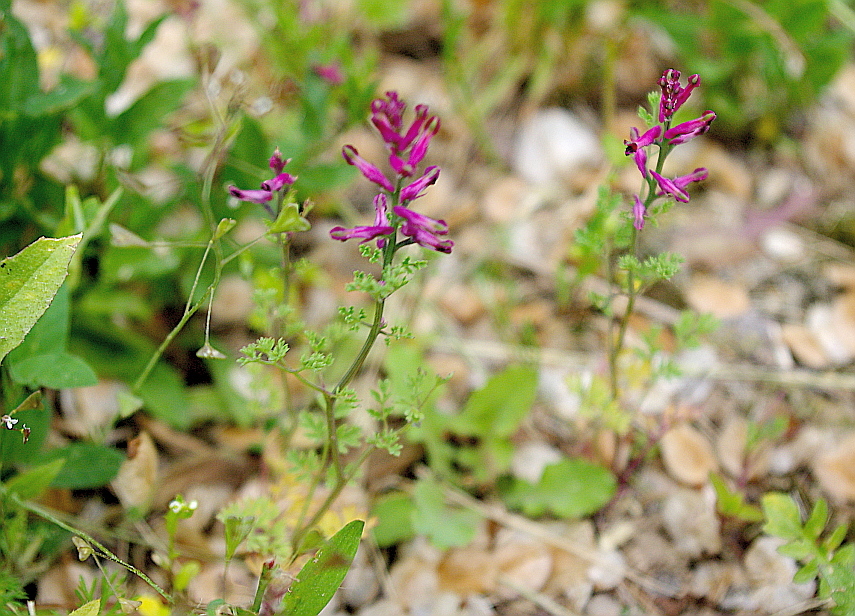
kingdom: Plantae
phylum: Tracheophyta
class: Magnoliopsida
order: Ranunculales
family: Papaveraceae
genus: Fumaria
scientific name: Fumaria officinalis
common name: Common fumitory
